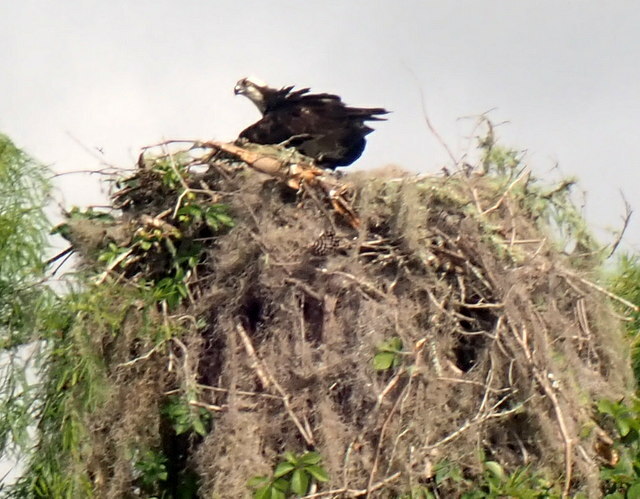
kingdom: Animalia
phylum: Chordata
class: Aves
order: Accipitriformes
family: Pandionidae
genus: Pandion
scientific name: Pandion haliaetus
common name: Osprey
